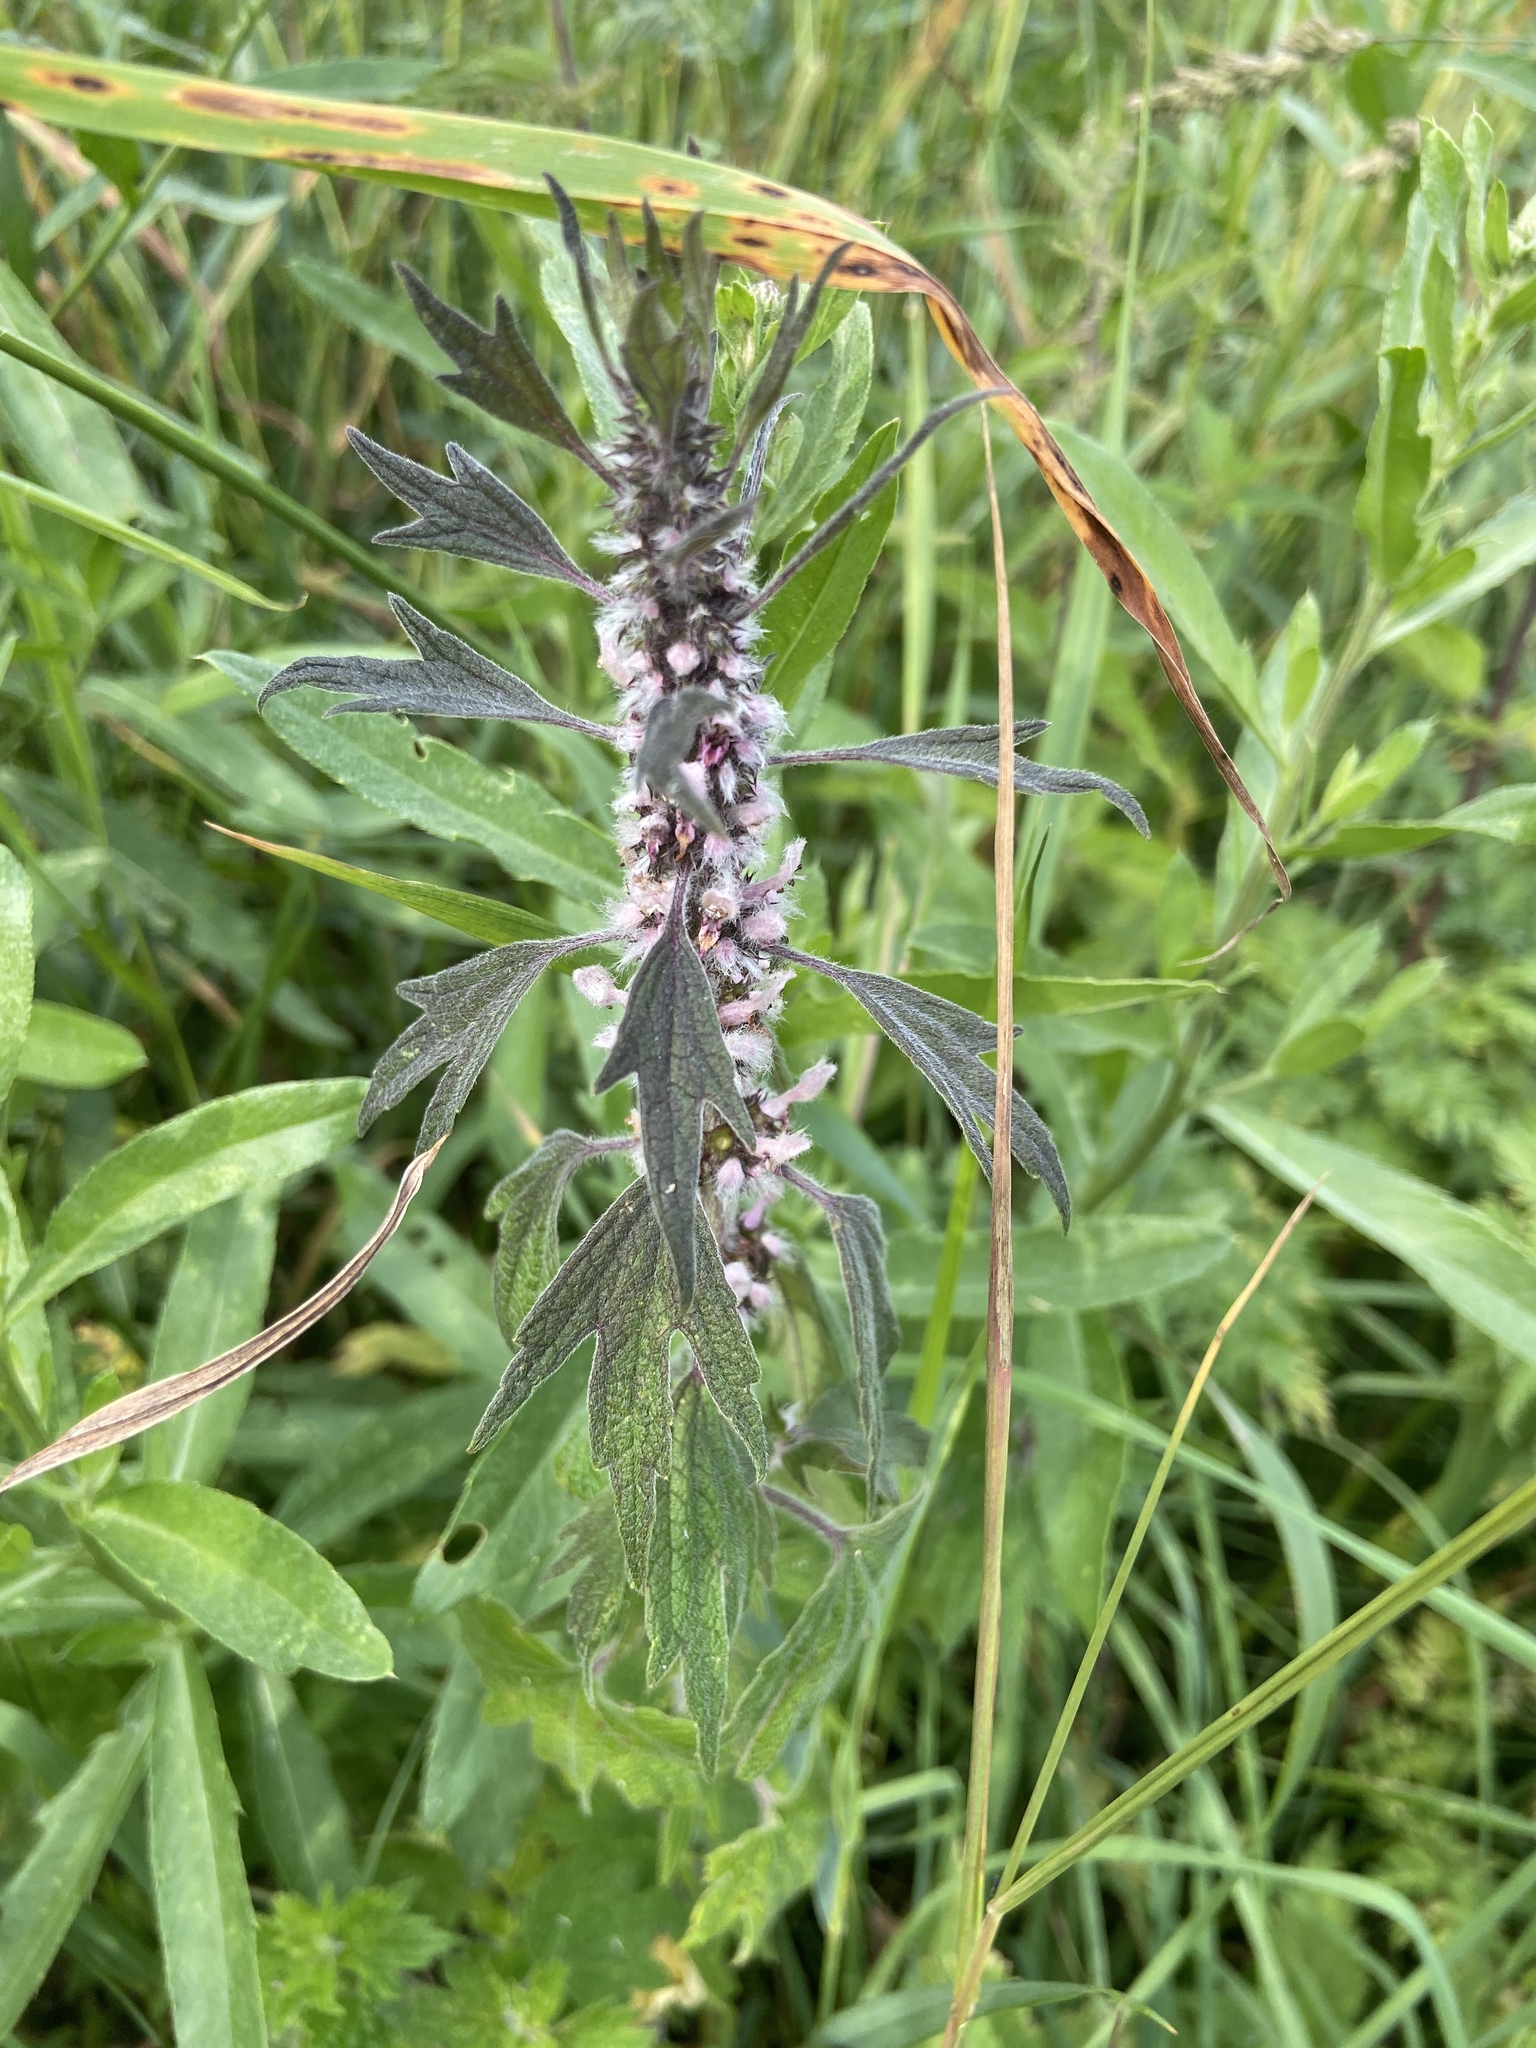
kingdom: Plantae
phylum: Tracheophyta
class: Magnoliopsida
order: Lamiales
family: Lamiaceae
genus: Leonurus
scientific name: Leonurus quinquelobatus
